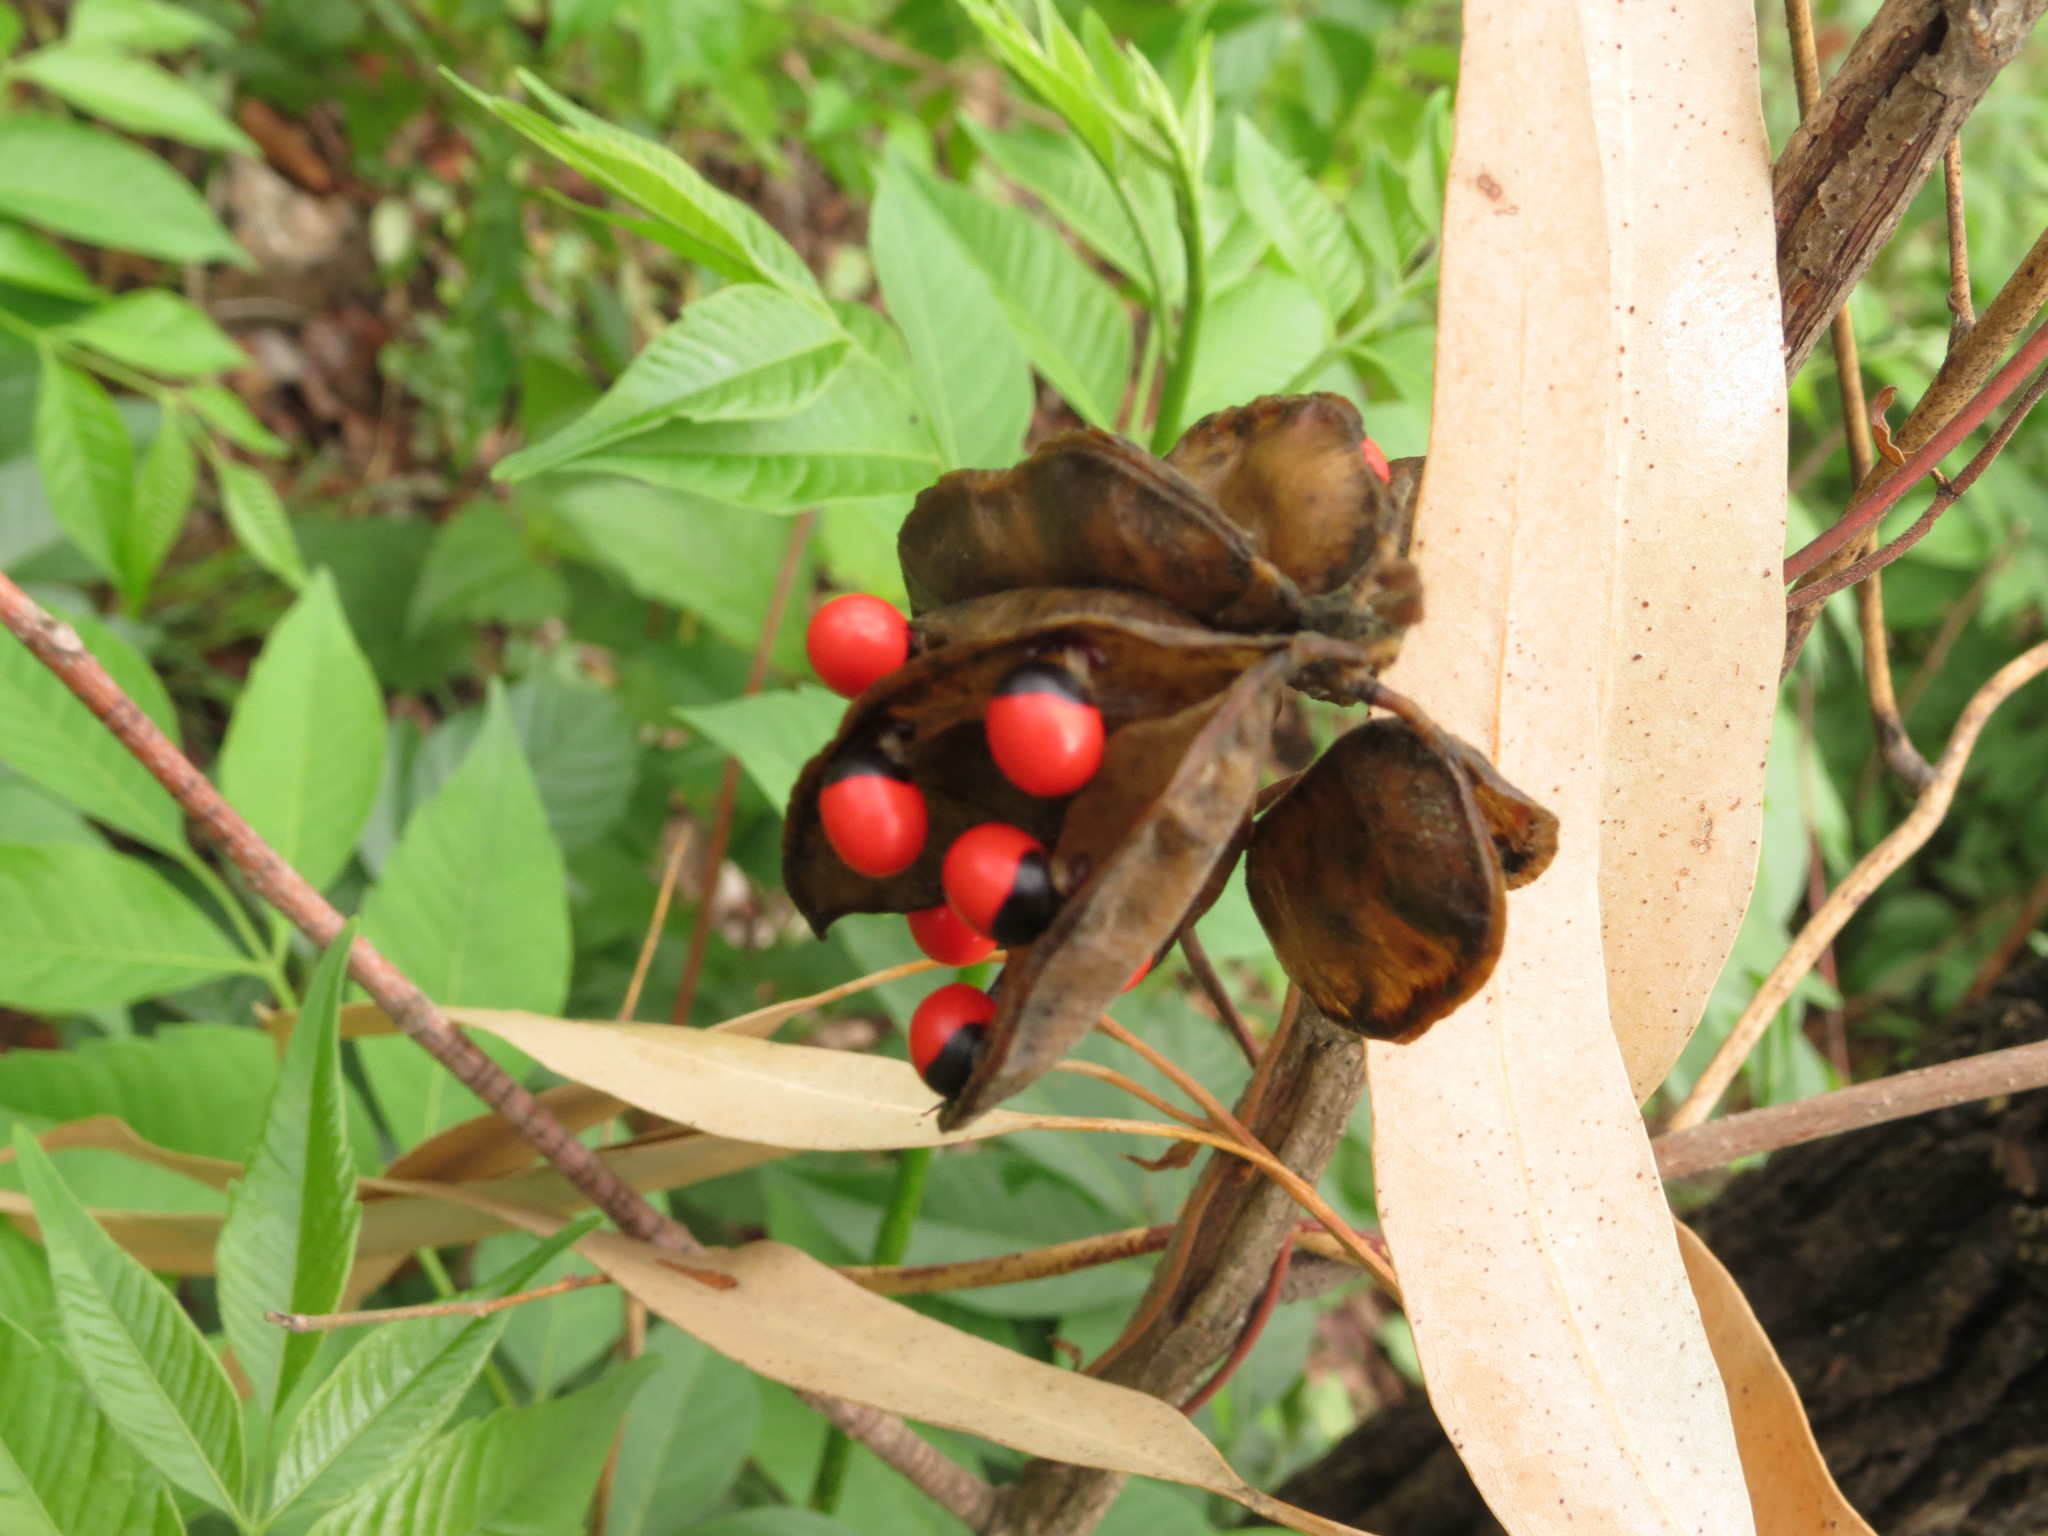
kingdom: Plantae
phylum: Tracheophyta
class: Magnoliopsida
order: Fabales
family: Fabaceae
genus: Abrus
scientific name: Abrus precatorius
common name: Rosarypea
